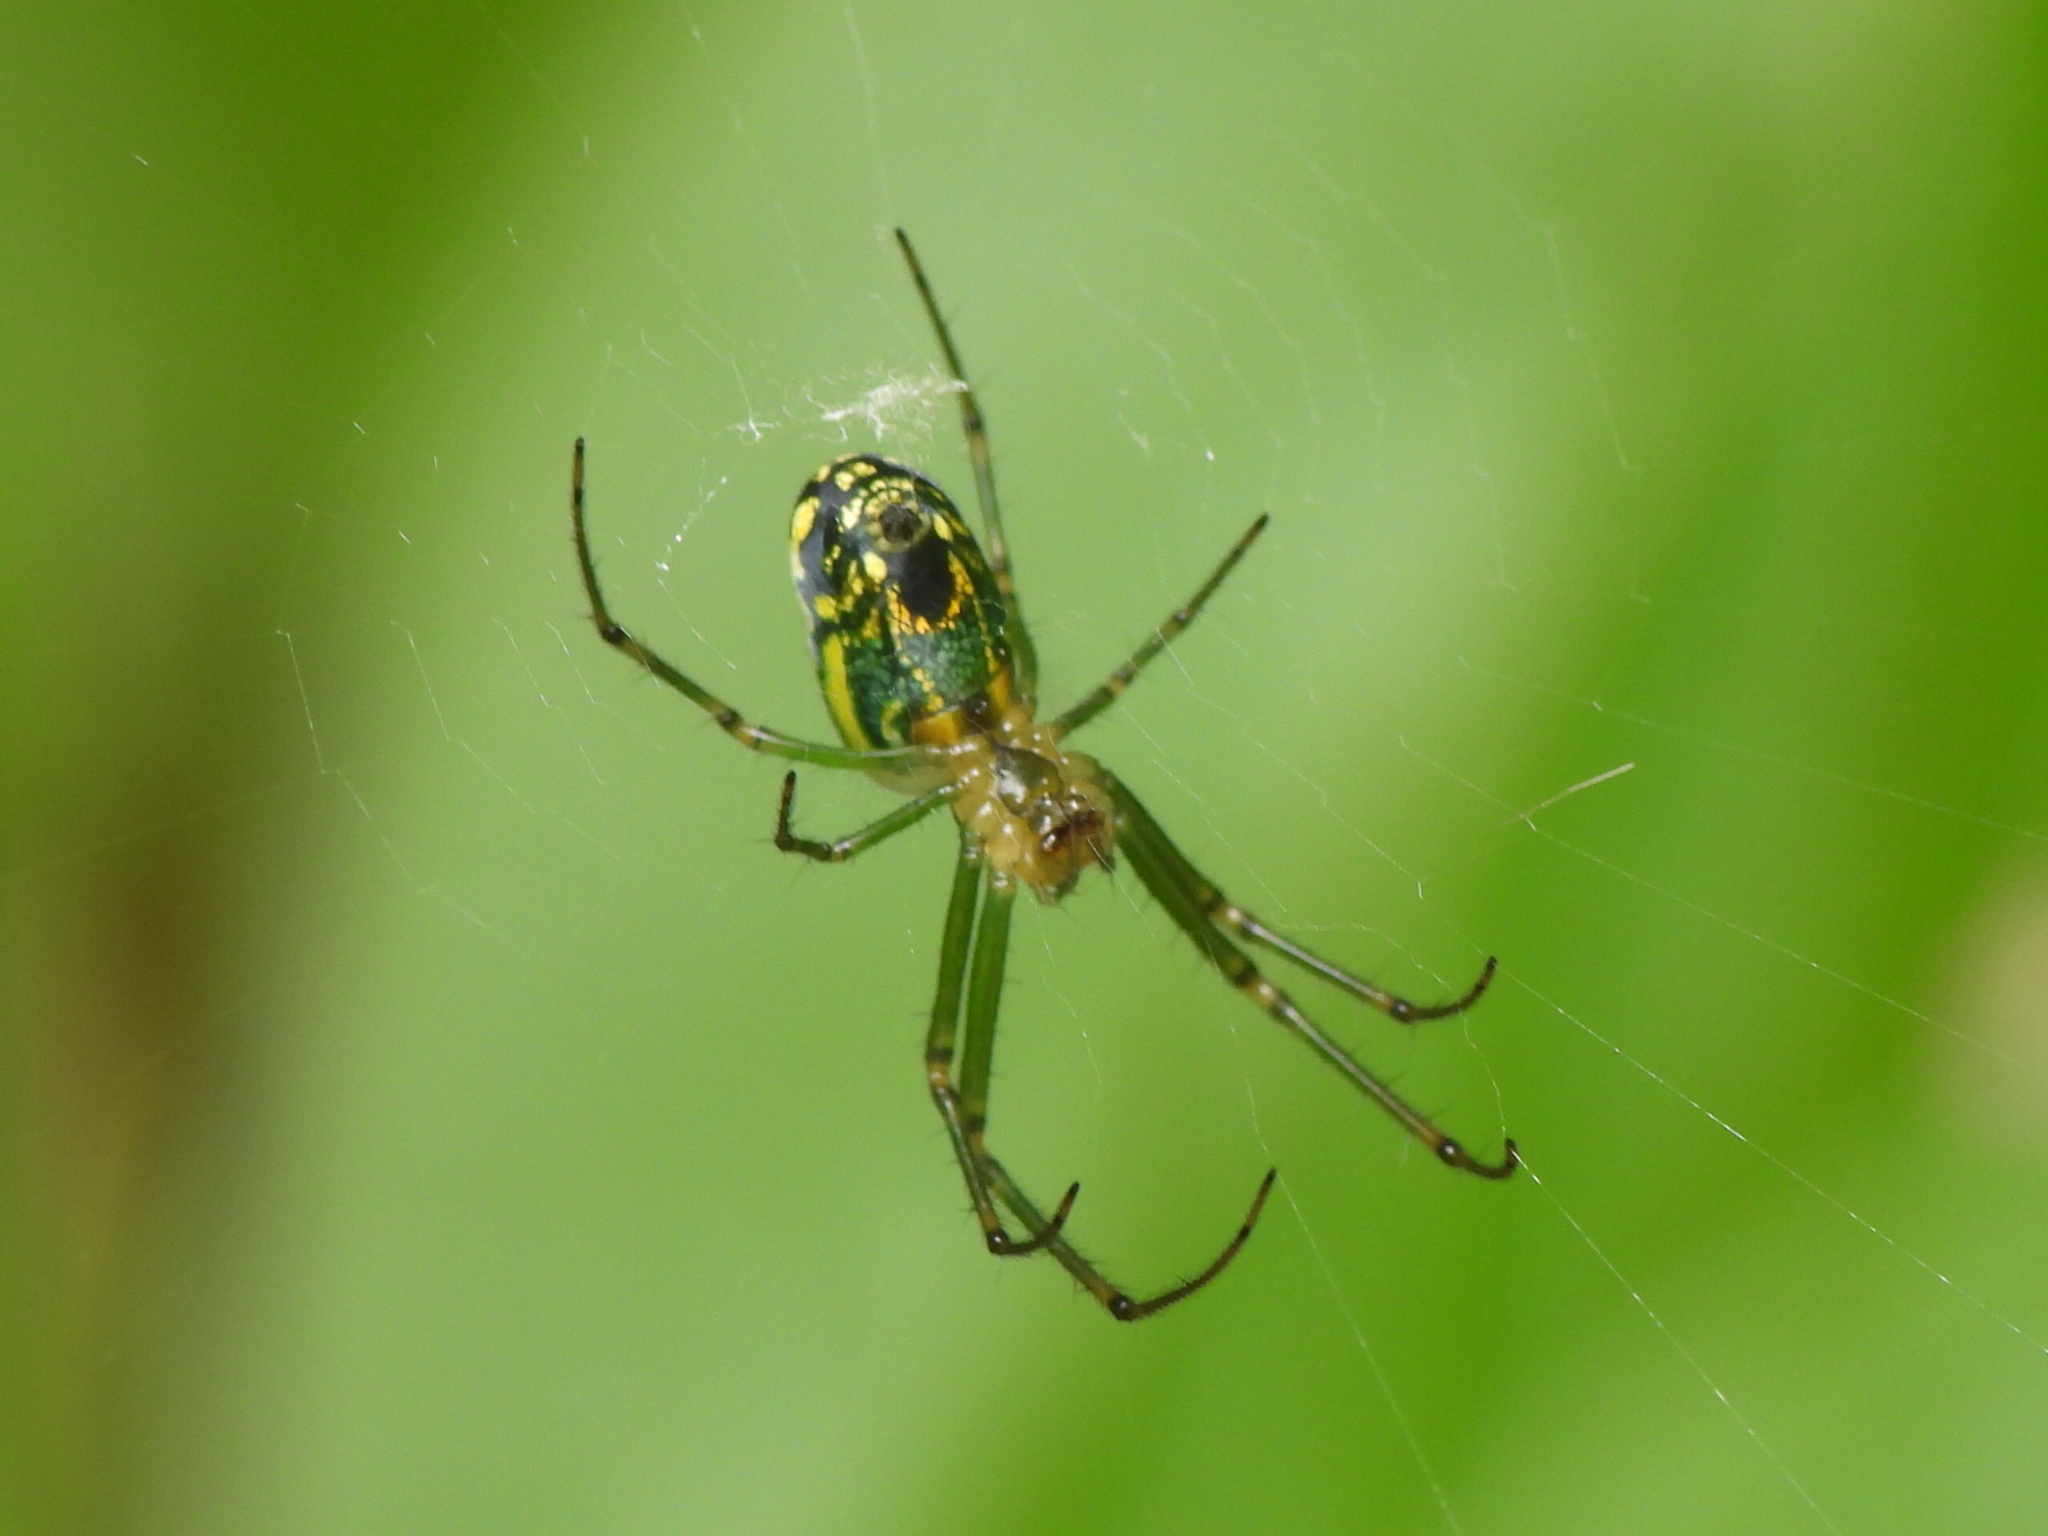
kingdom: Animalia
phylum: Arthropoda
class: Arachnida
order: Araneae
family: Tetragnathidae
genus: Leucauge
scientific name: Leucauge venusta
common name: Longjawed orb weavers
